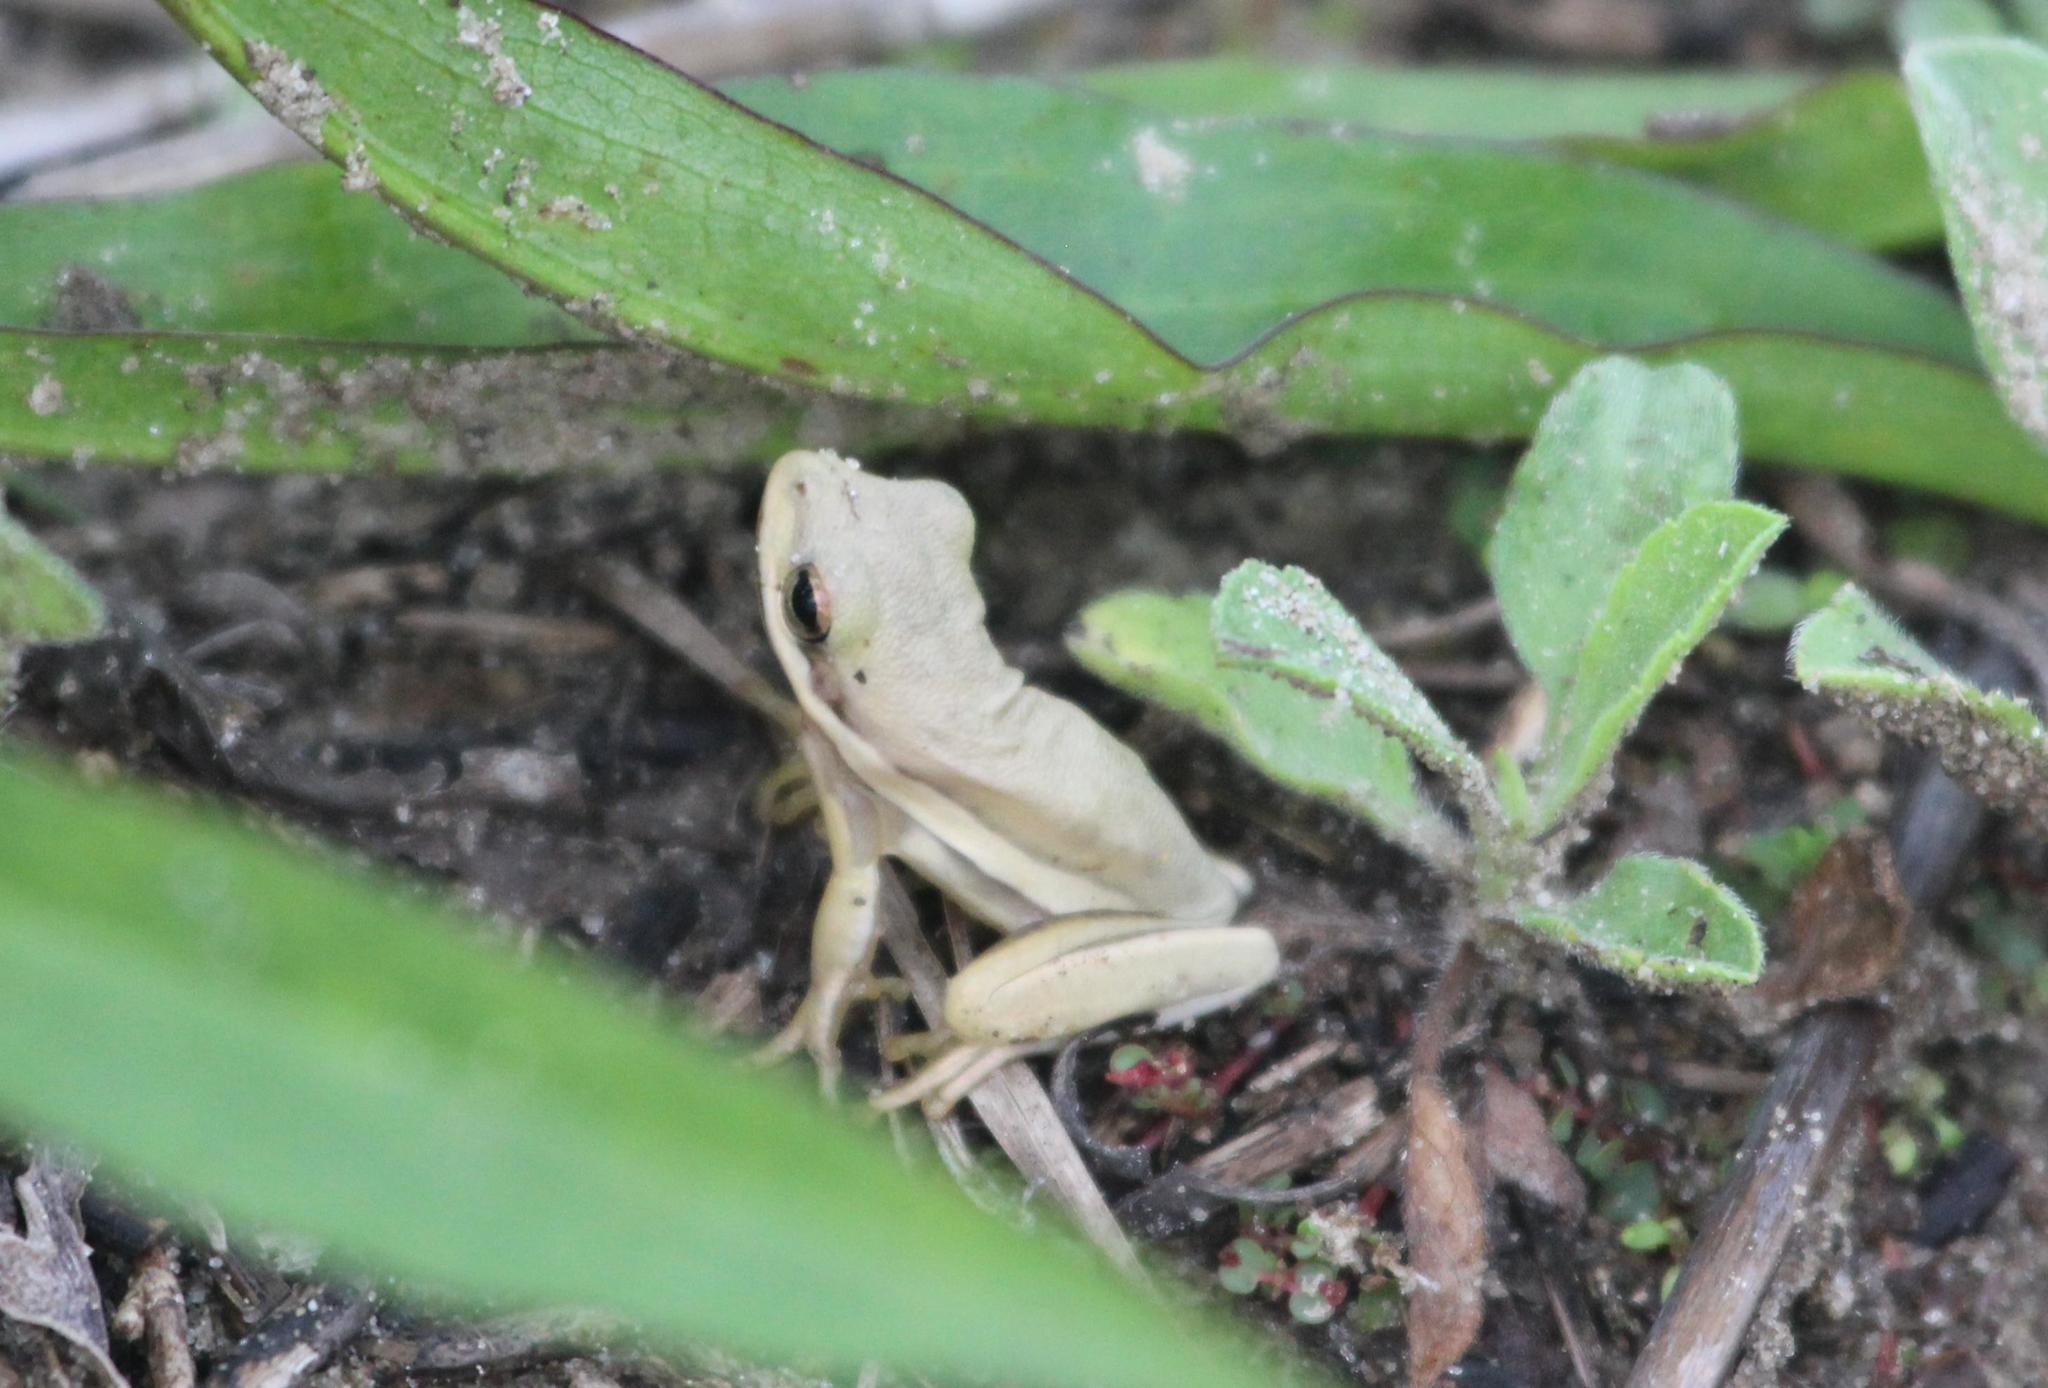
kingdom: Animalia
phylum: Chordata
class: Amphibia
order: Anura
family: Hylidae
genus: Dryophytes
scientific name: Dryophytes cinereus
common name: Green treefrog
